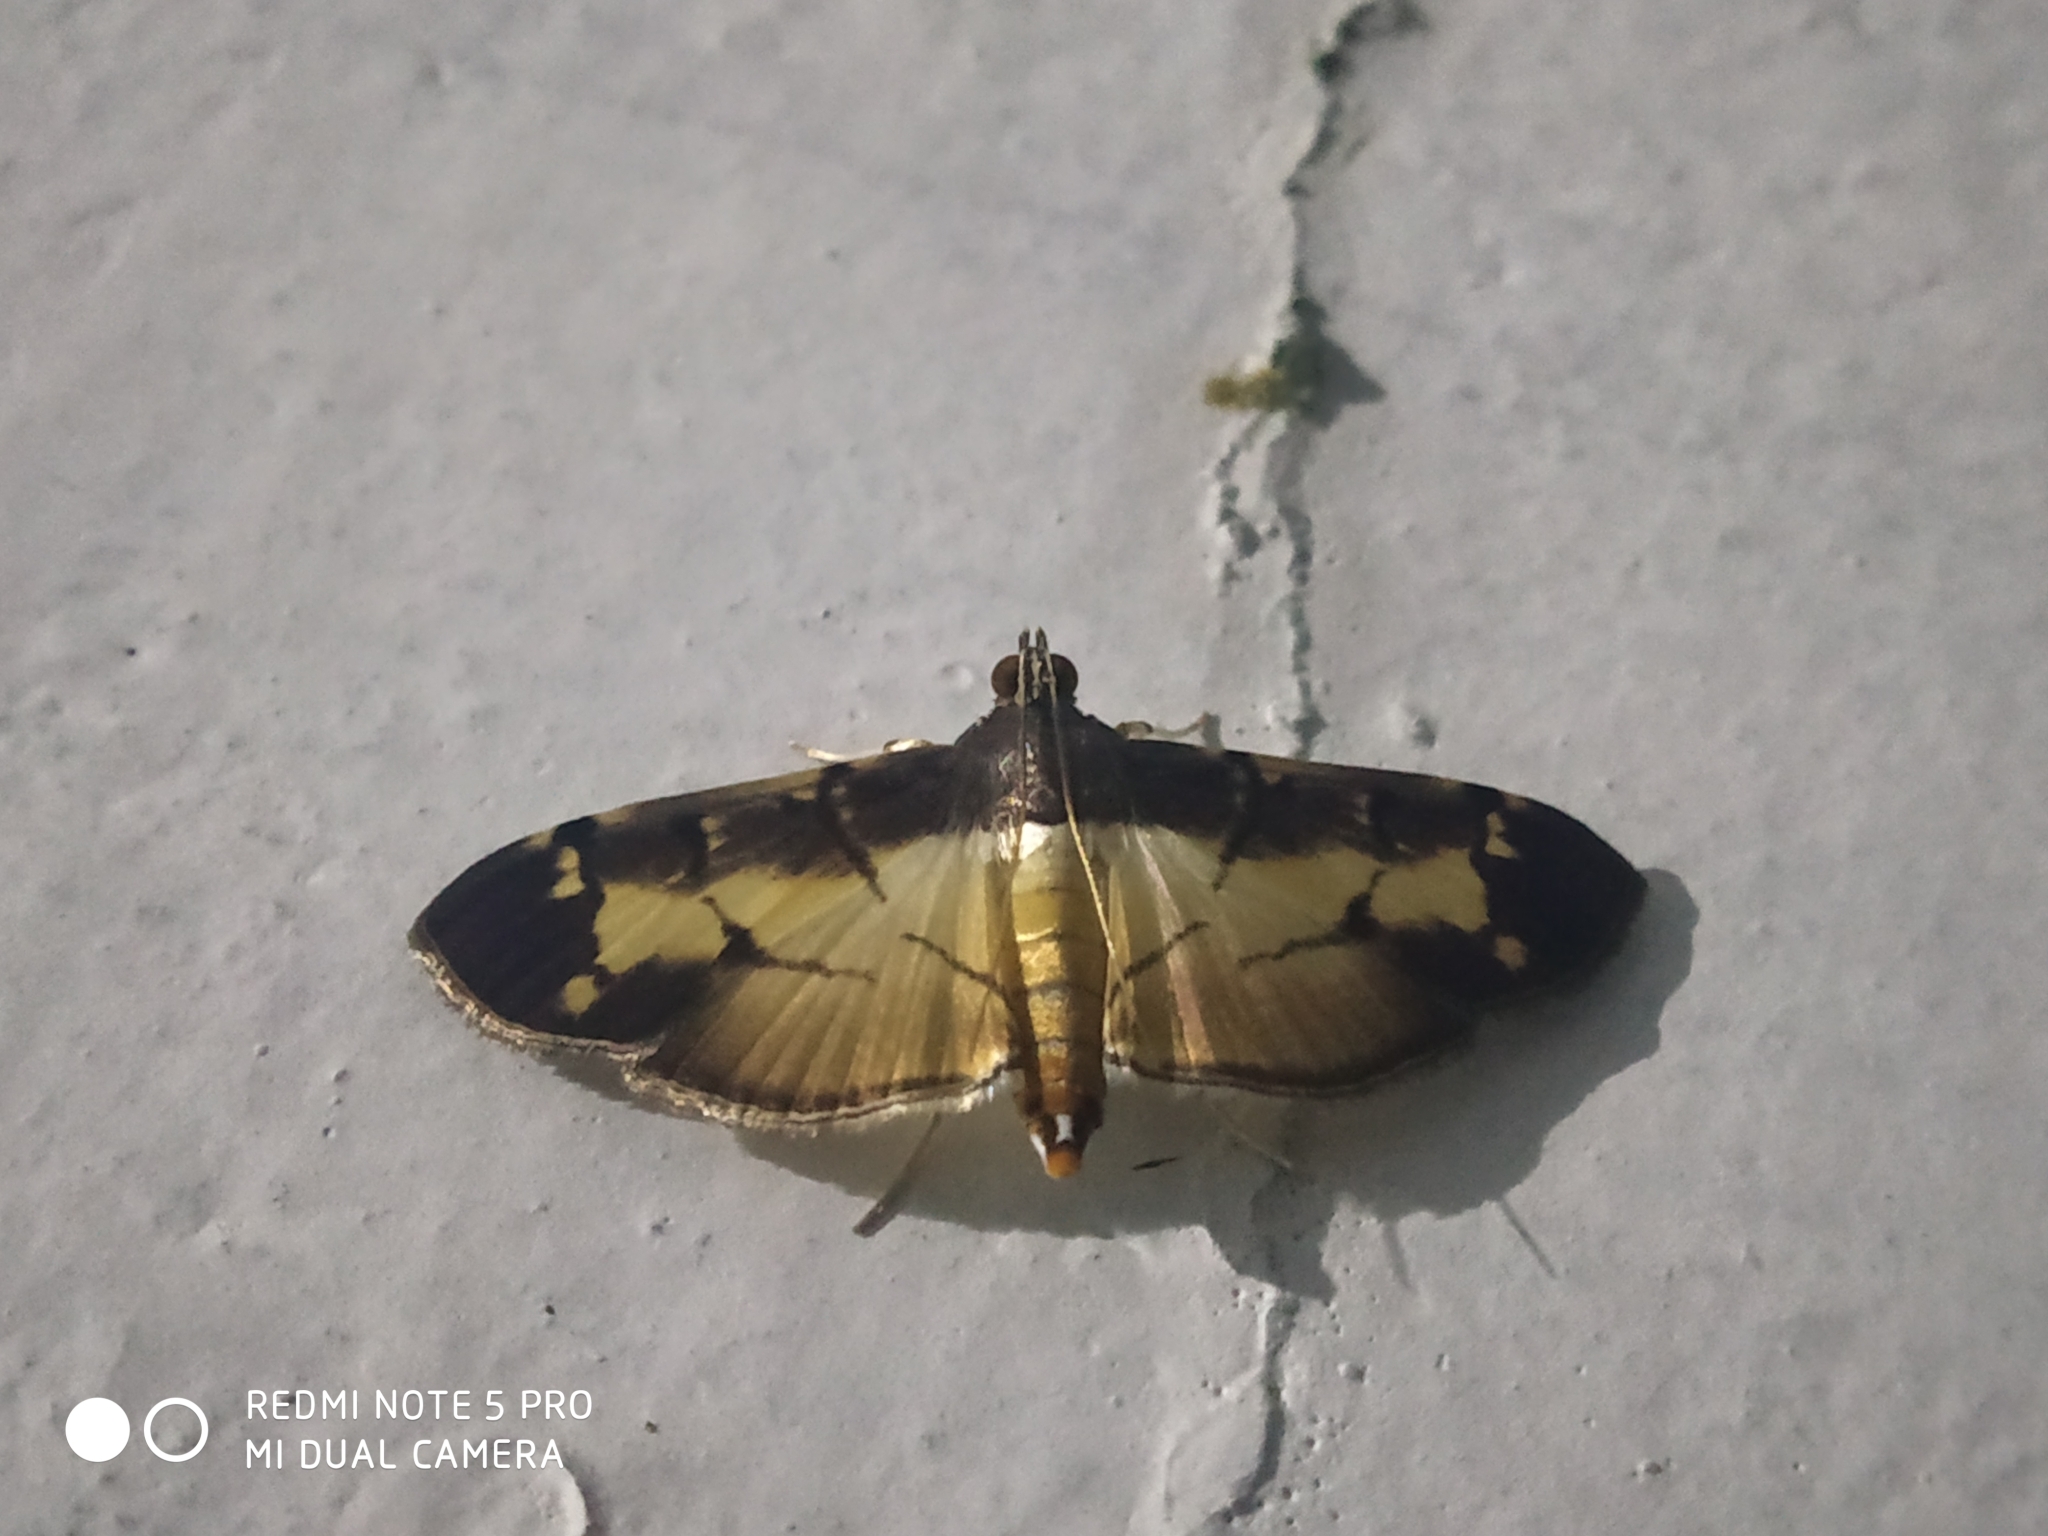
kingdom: Animalia
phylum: Arthropoda
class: Insecta
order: Lepidoptera
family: Crambidae
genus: Bacotoma
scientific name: Bacotoma violata
